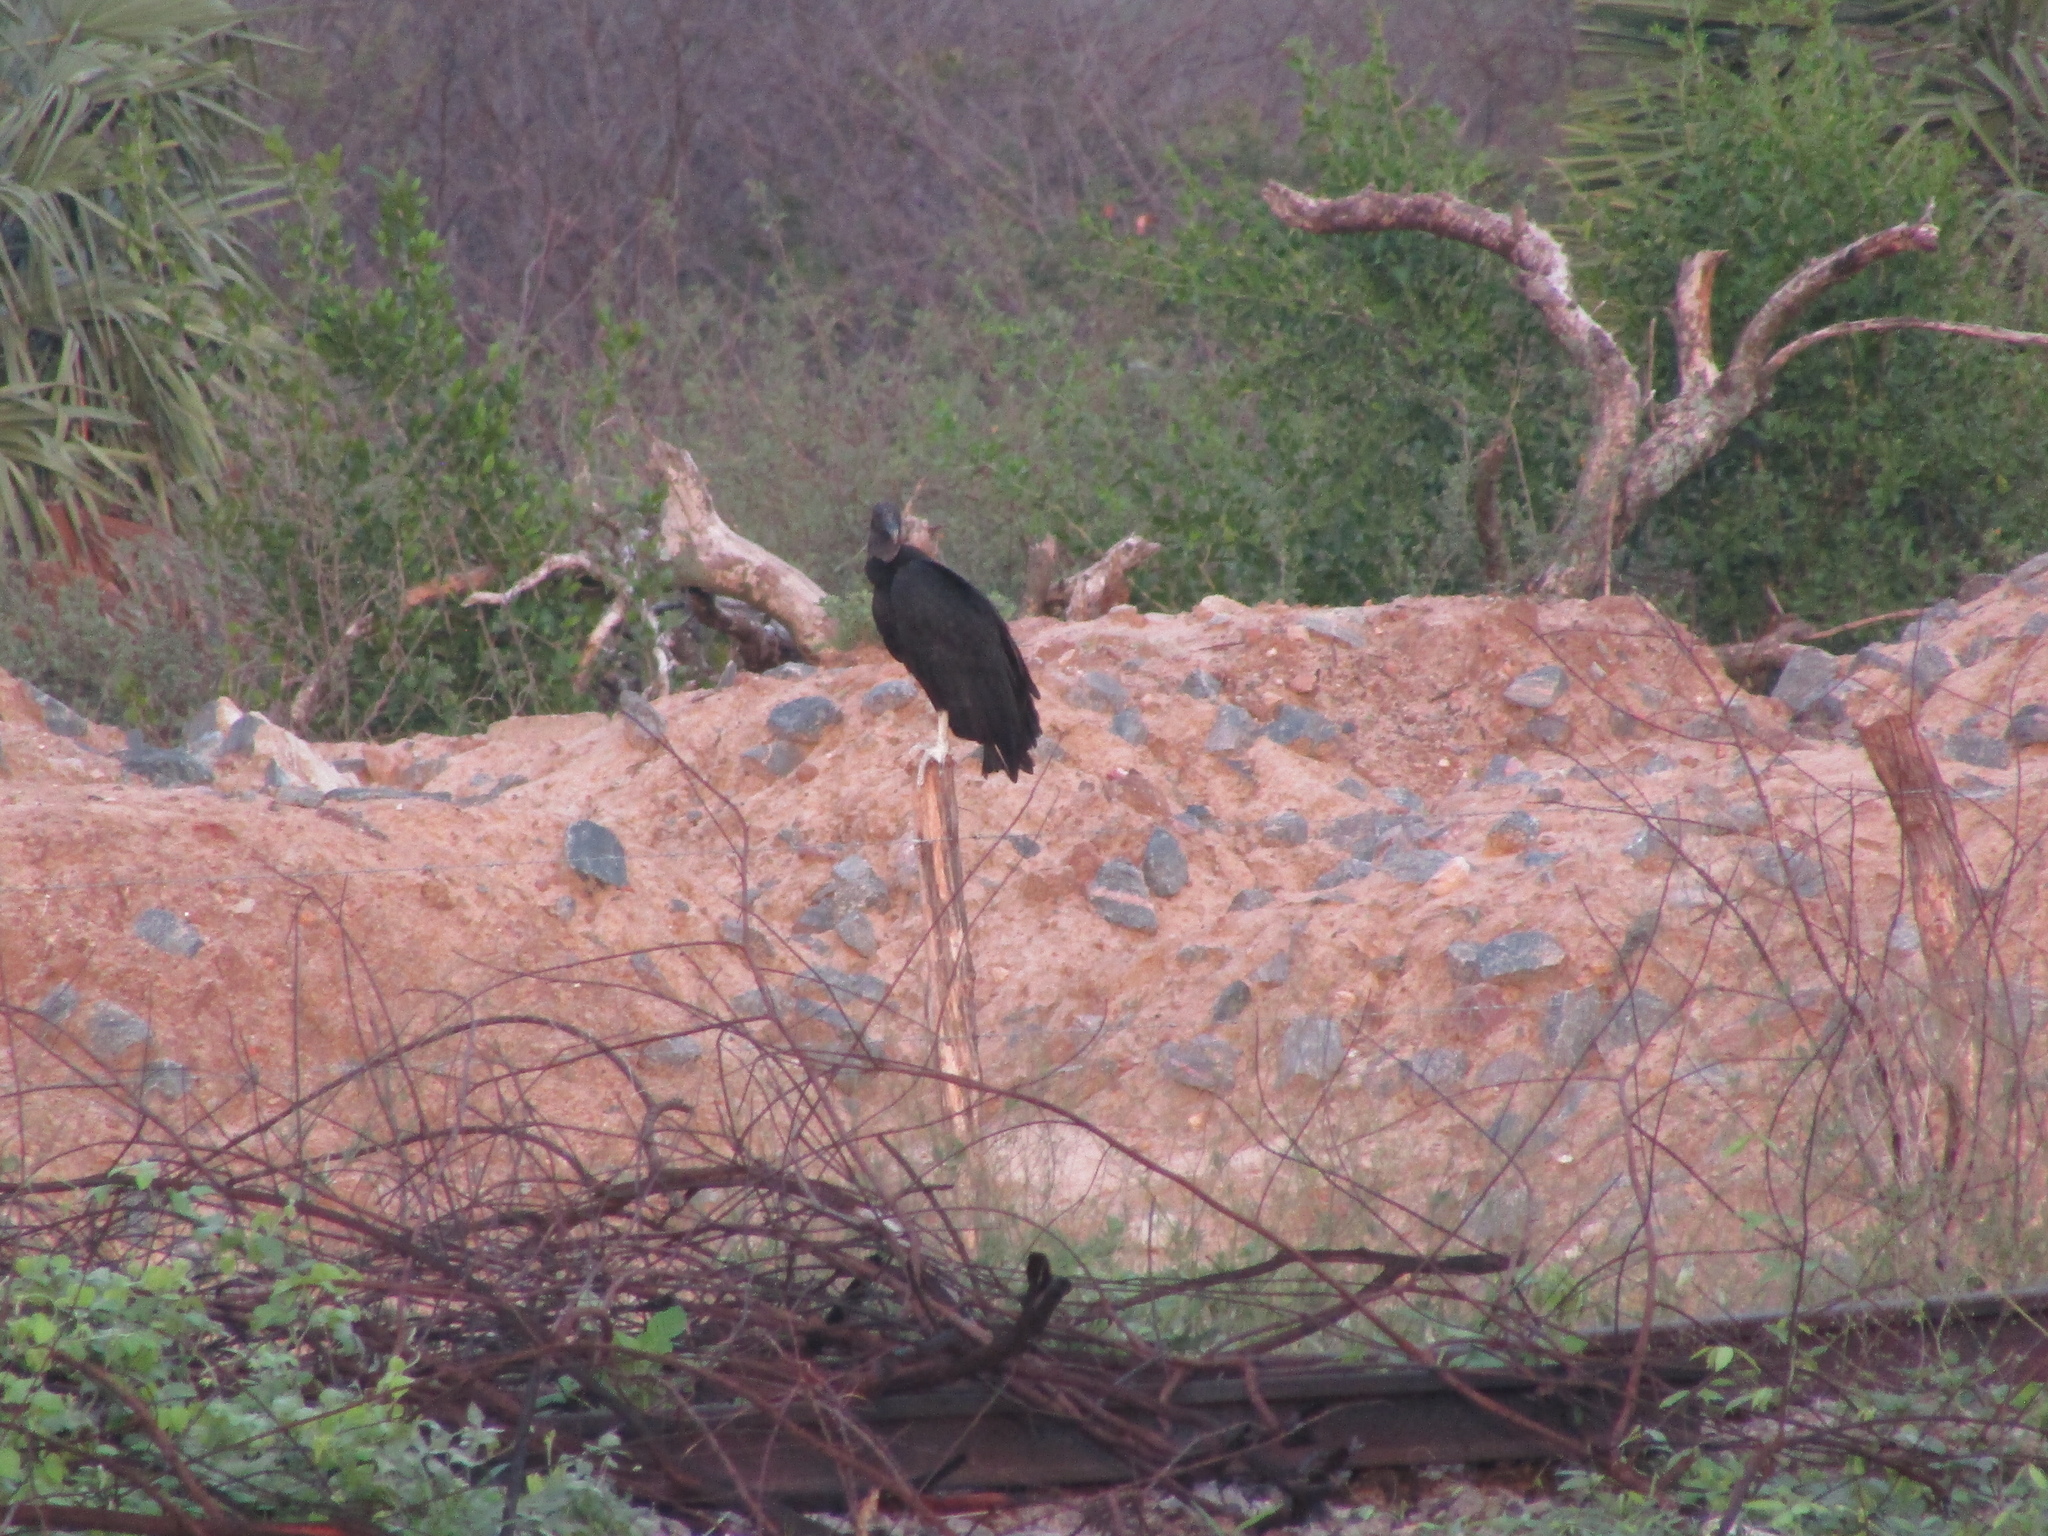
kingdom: Animalia
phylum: Chordata
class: Aves
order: Accipitriformes
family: Cathartidae
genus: Coragyps
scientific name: Coragyps atratus
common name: Black vulture
